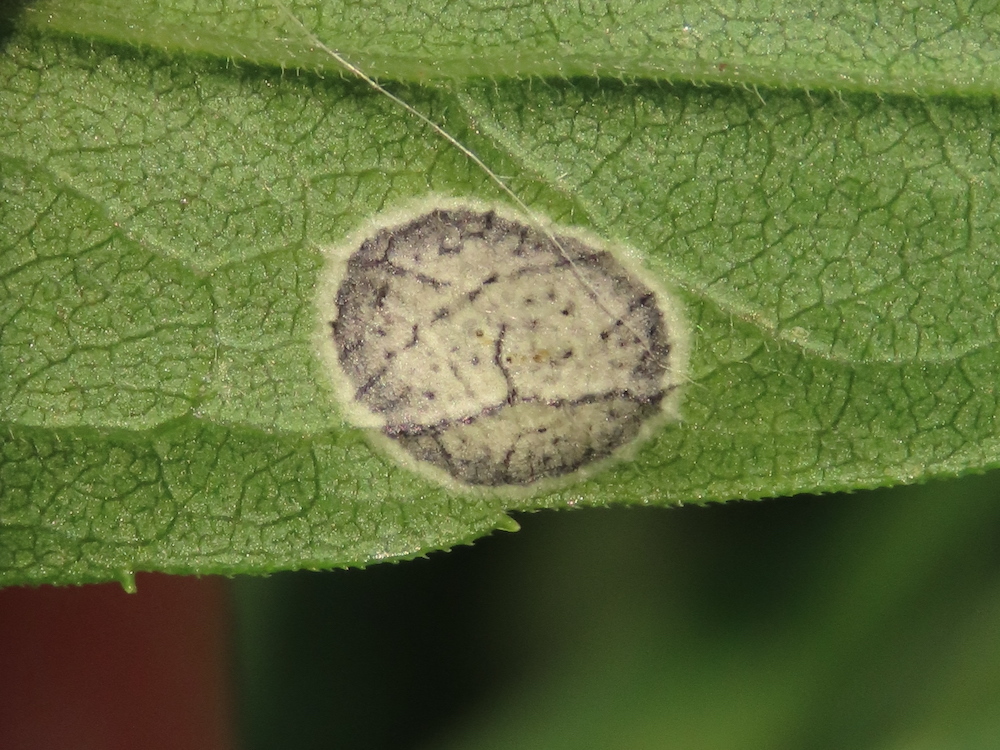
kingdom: Animalia
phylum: Arthropoda
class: Insecta
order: Diptera
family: Cecidomyiidae
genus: Asteromyia
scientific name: Asteromyia carbonifera
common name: Carbonifera goldenrod gall midge
